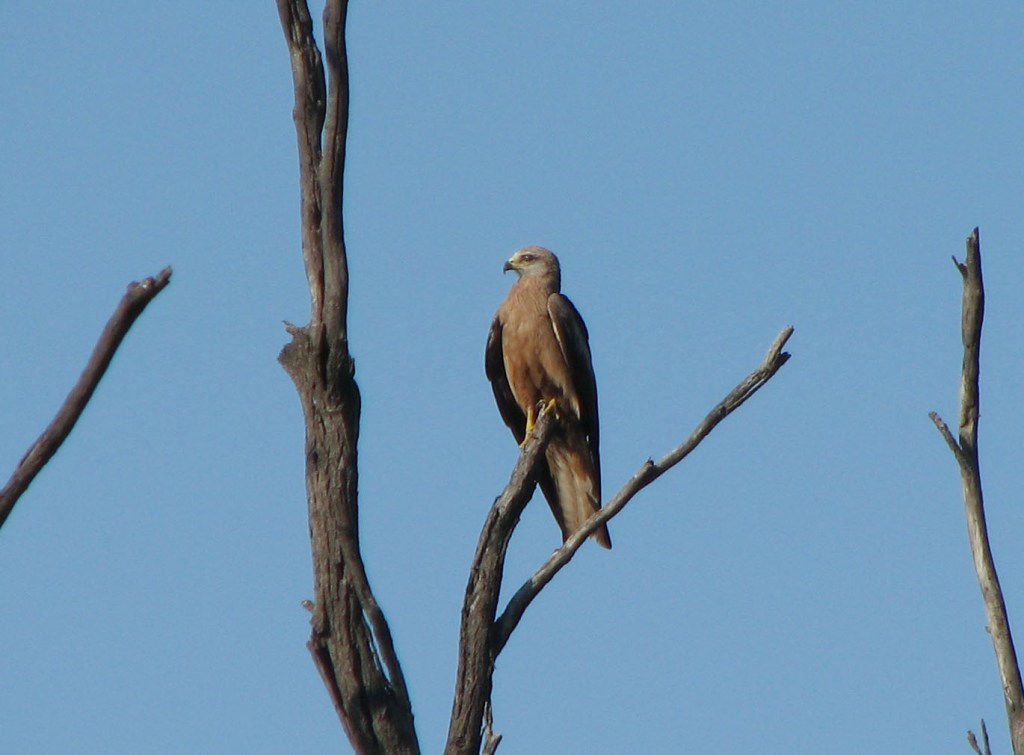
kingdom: Animalia
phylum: Chordata
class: Aves
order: Accipitriformes
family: Accipitridae
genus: Milvus
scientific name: Milvus migrans
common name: Black kite
